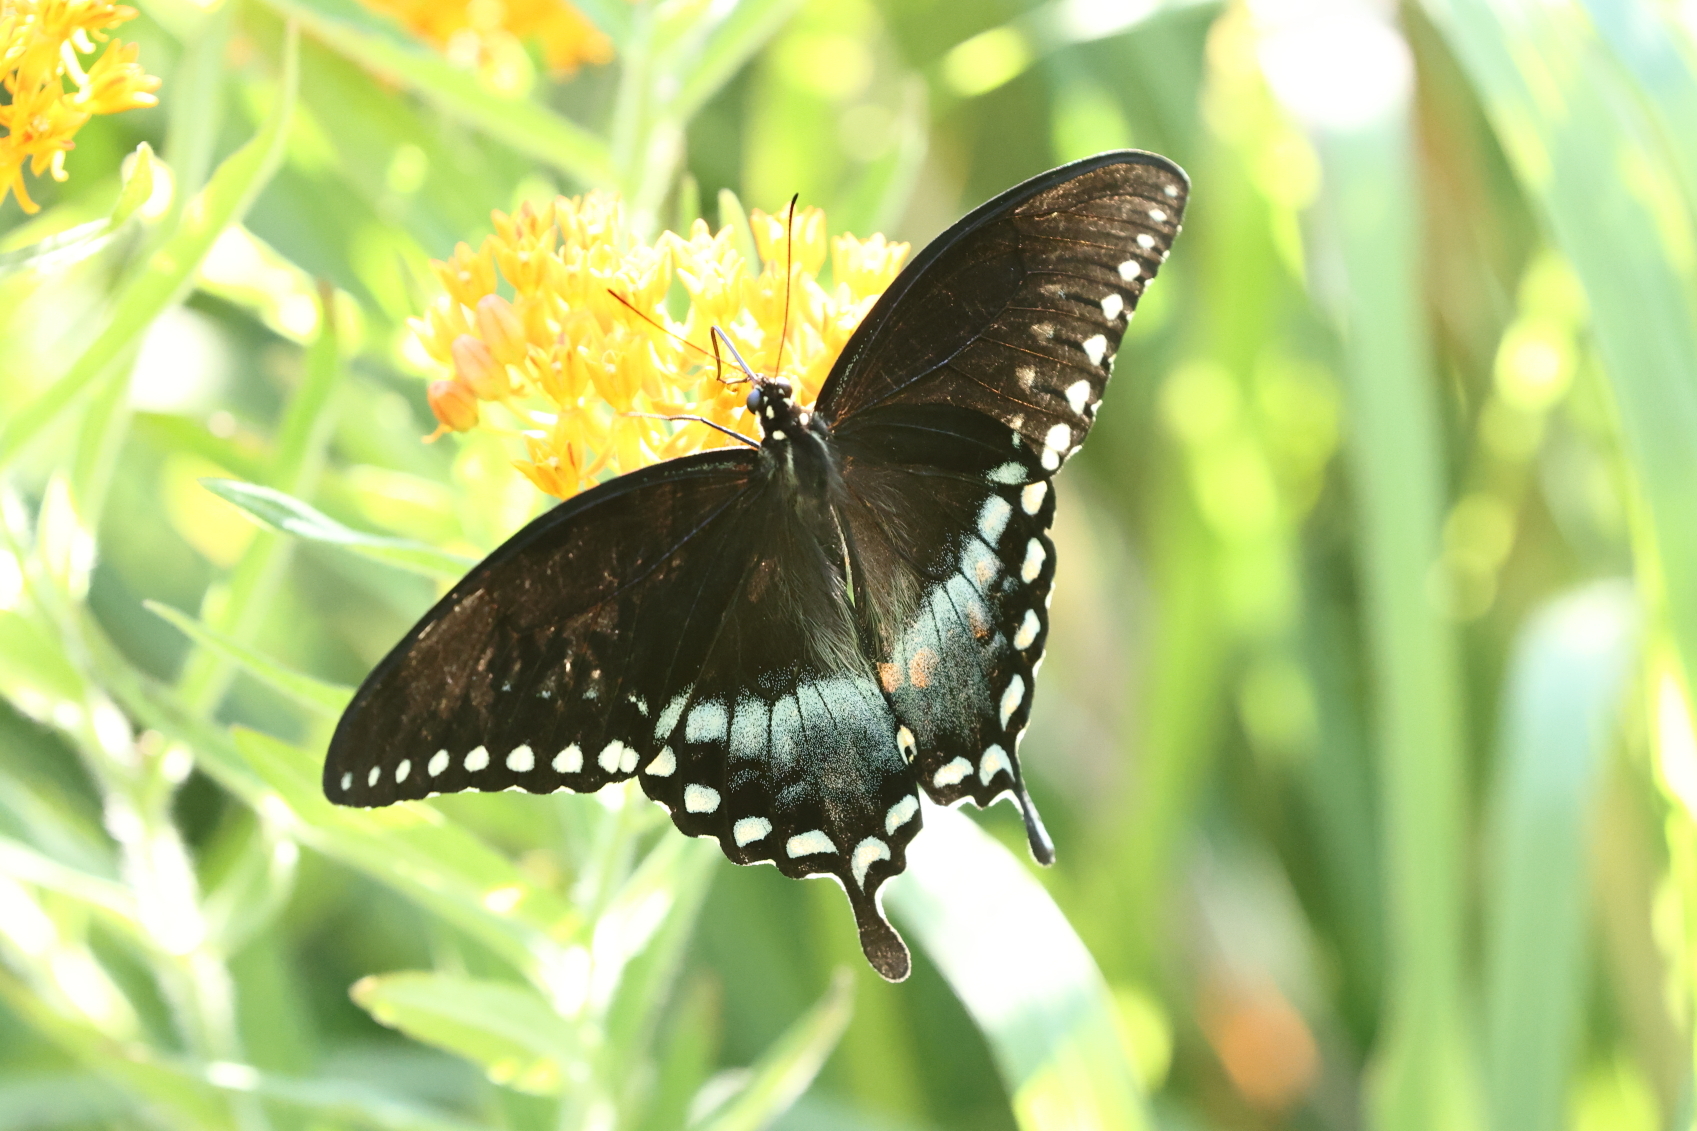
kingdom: Animalia
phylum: Arthropoda
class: Insecta
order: Lepidoptera
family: Papilionidae
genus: Papilio
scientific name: Papilio troilus
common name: Spicebush swallowtail
